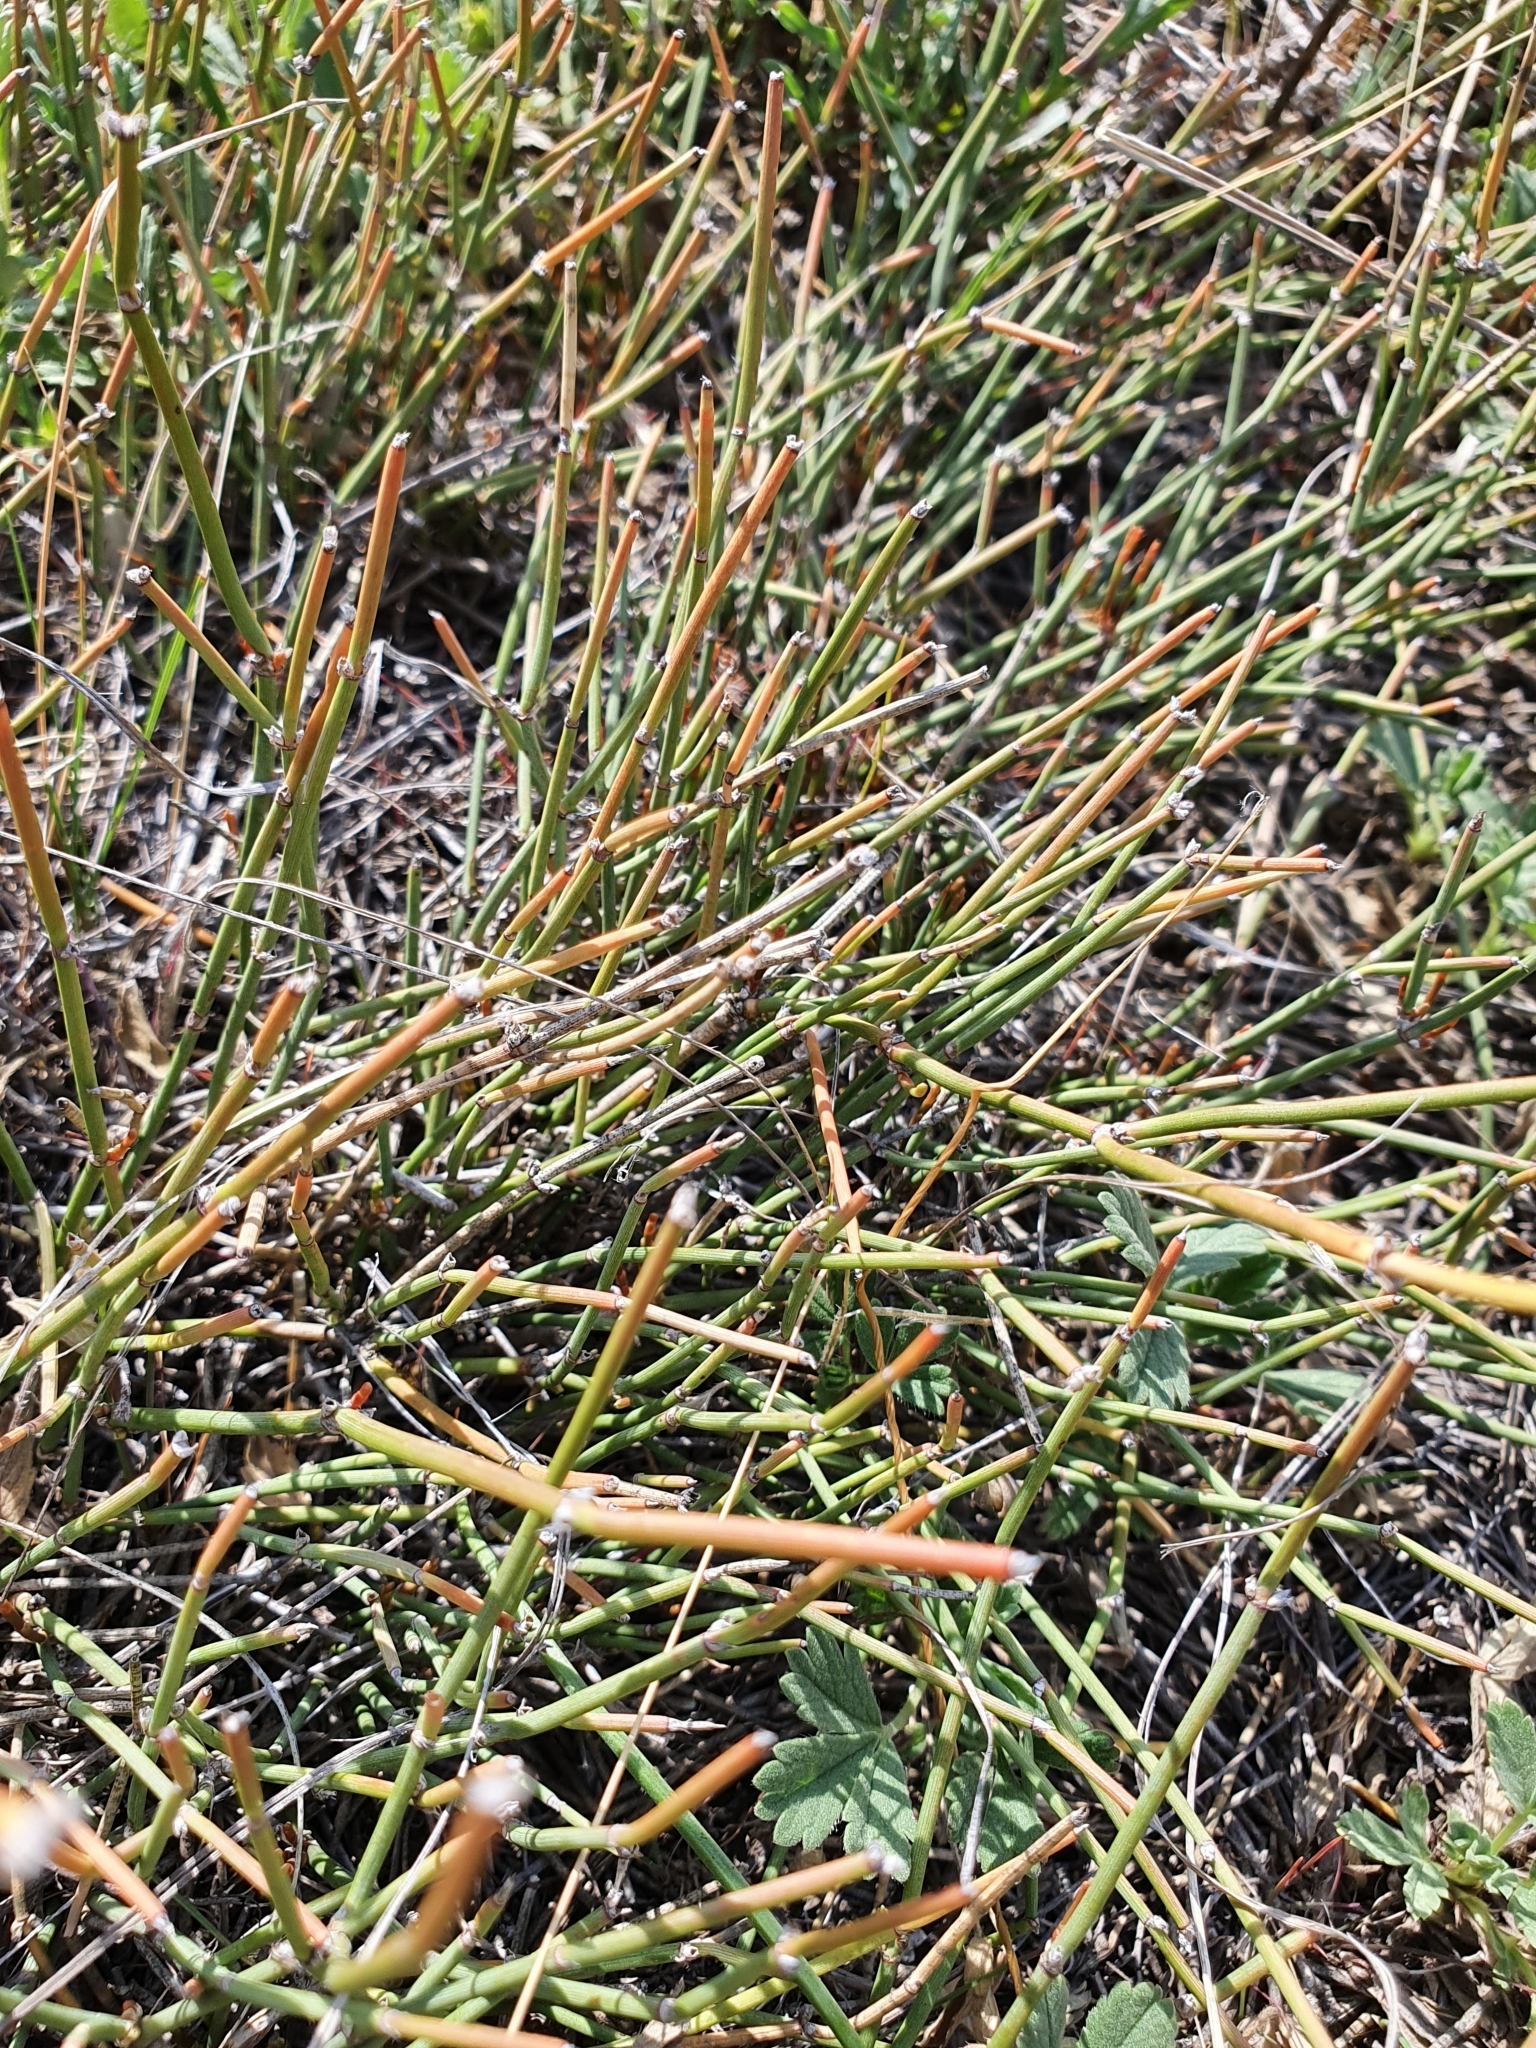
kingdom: Plantae
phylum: Tracheophyta
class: Gnetopsida
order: Ephedrales
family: Ephedraceae
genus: Ephedra
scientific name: Ephedra distachya
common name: Sea grape
